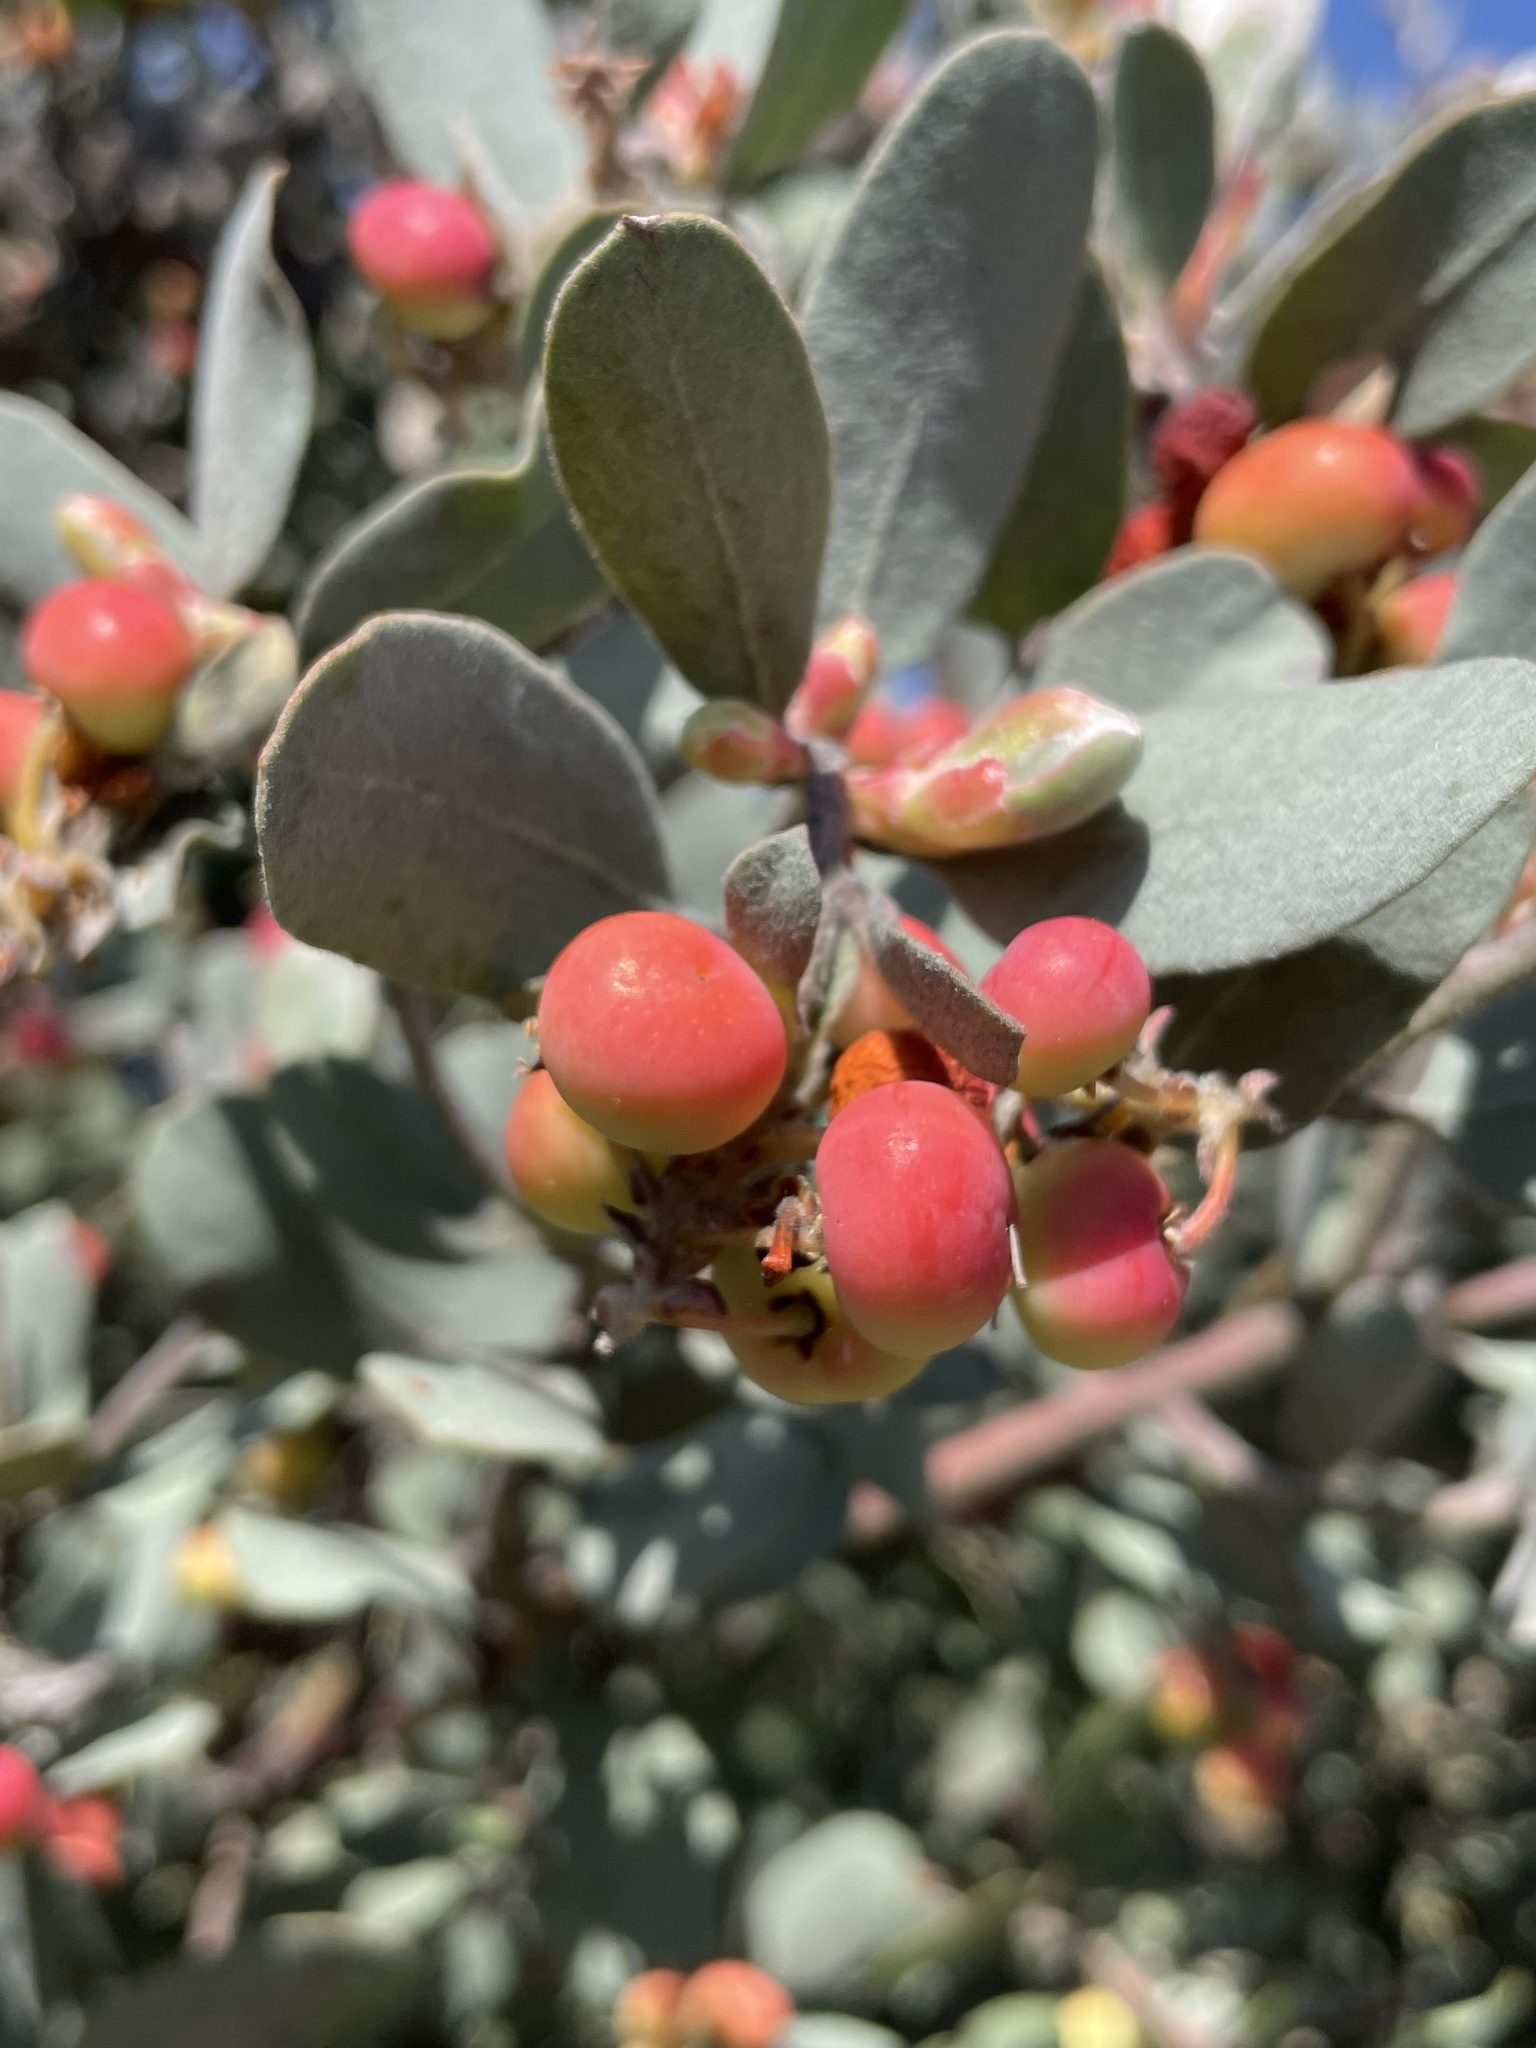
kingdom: Plantae
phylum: Tracheophyta
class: Magnoliopsida
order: Ericales
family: Ericaceae
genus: Arctostaphylos
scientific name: Arctostaphylos silvicola
